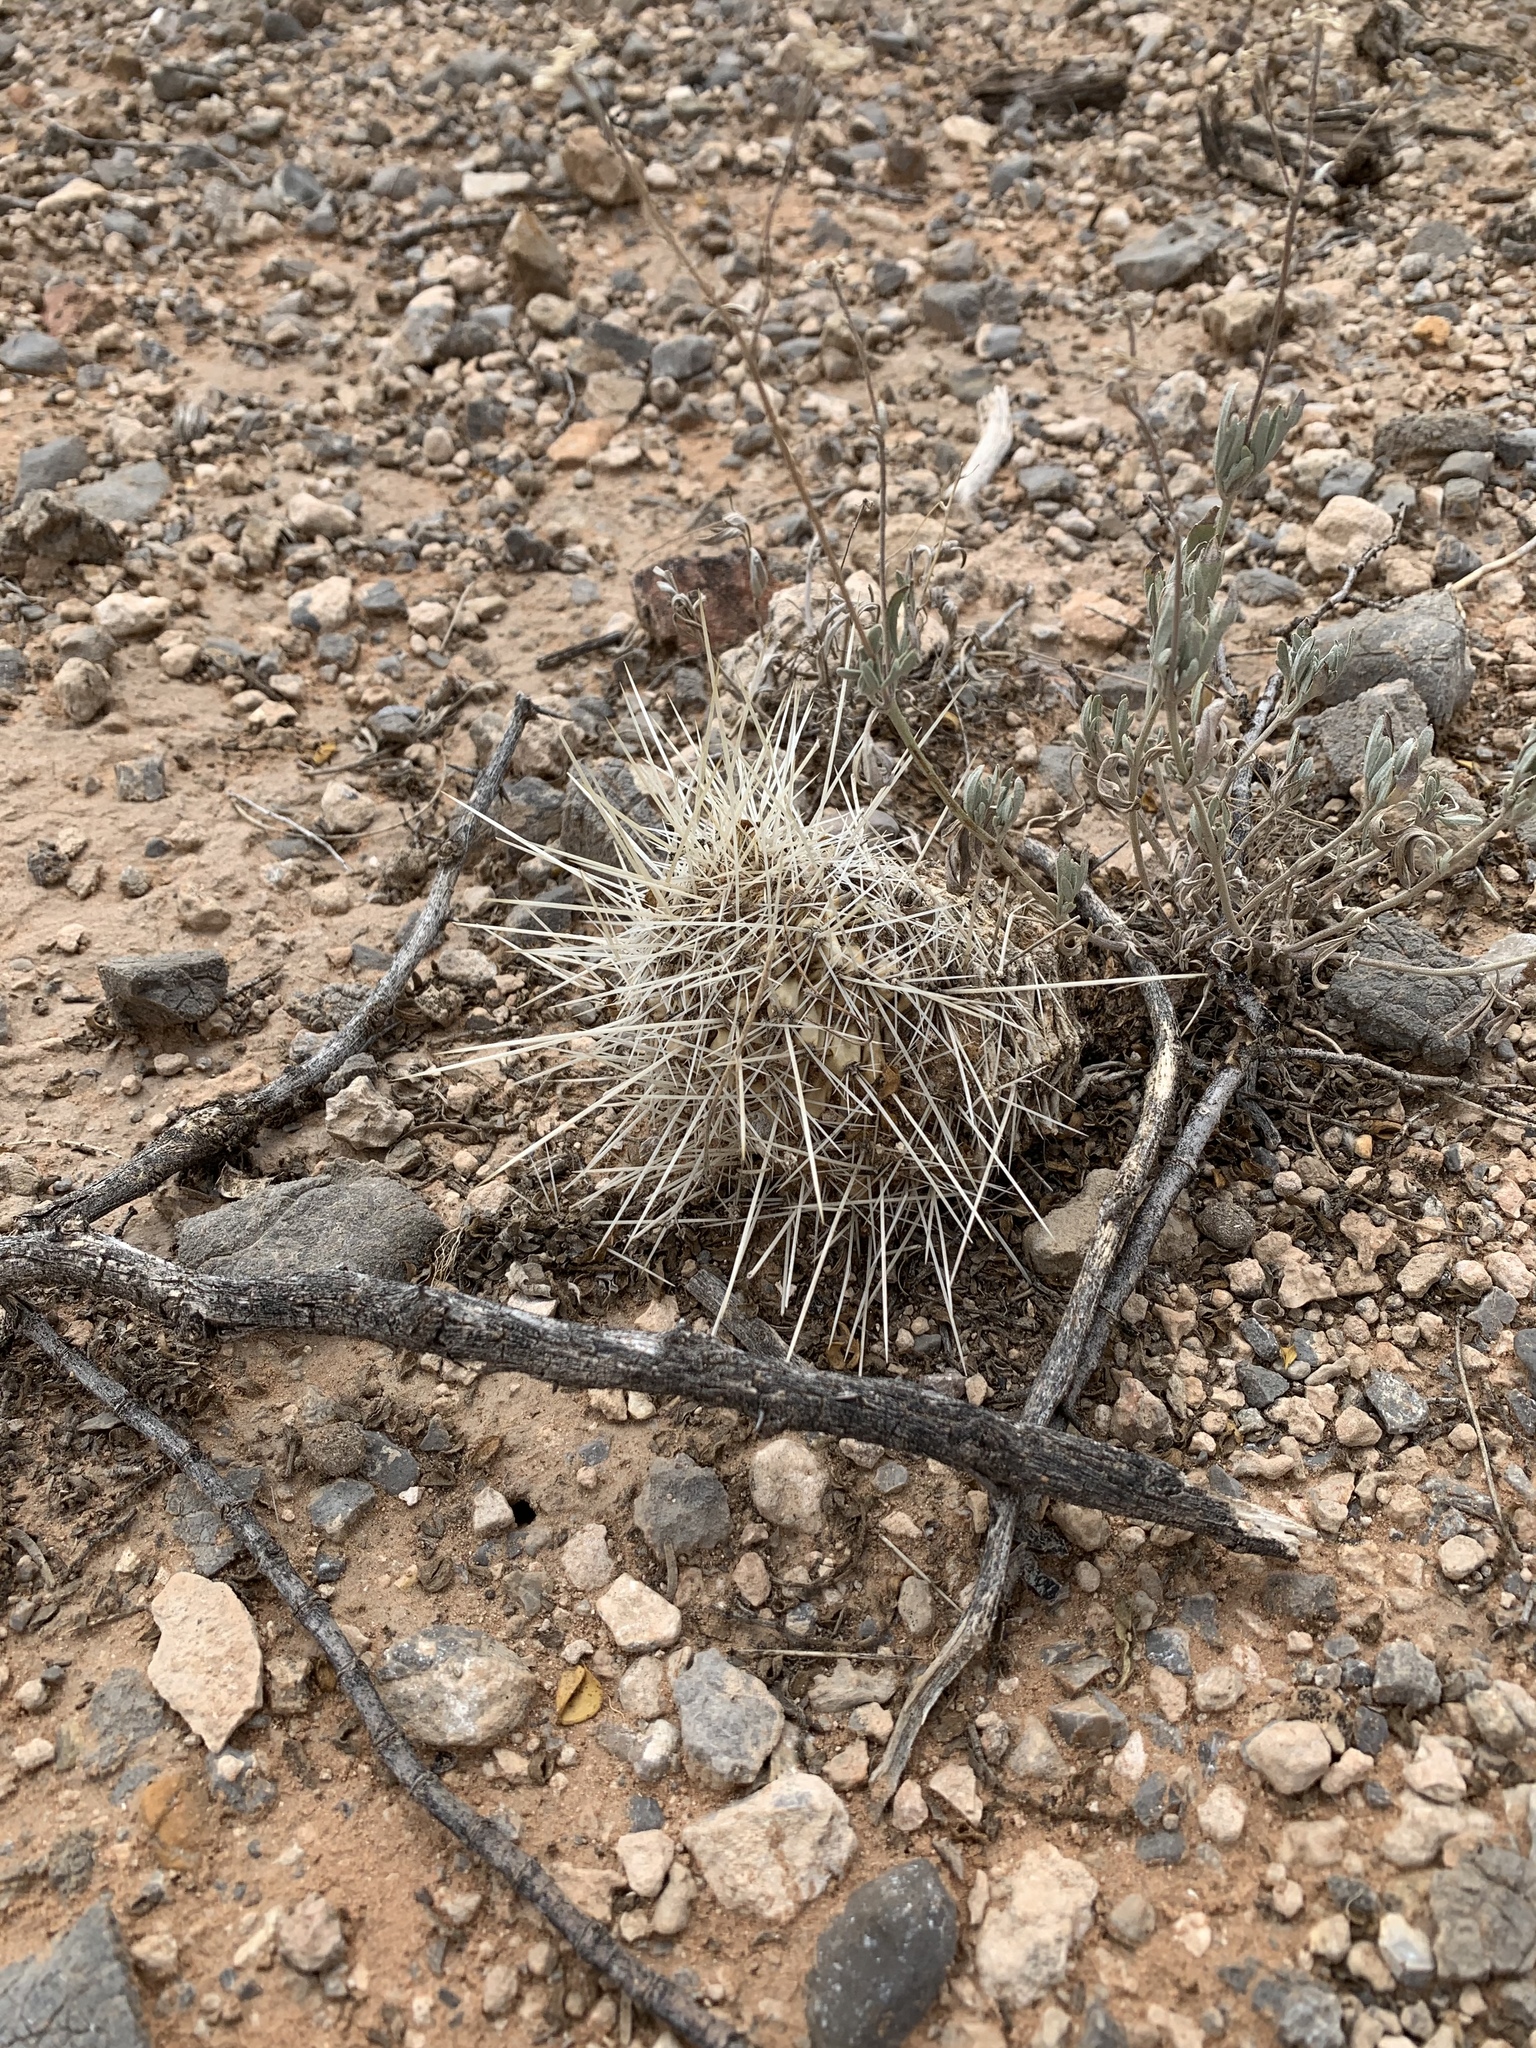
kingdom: Plantae
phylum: Tracheophyta
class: Magnoliopsida
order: Caryophyllales
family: Cactaceae
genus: Echinocereus
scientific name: Echinocereus stramineus
